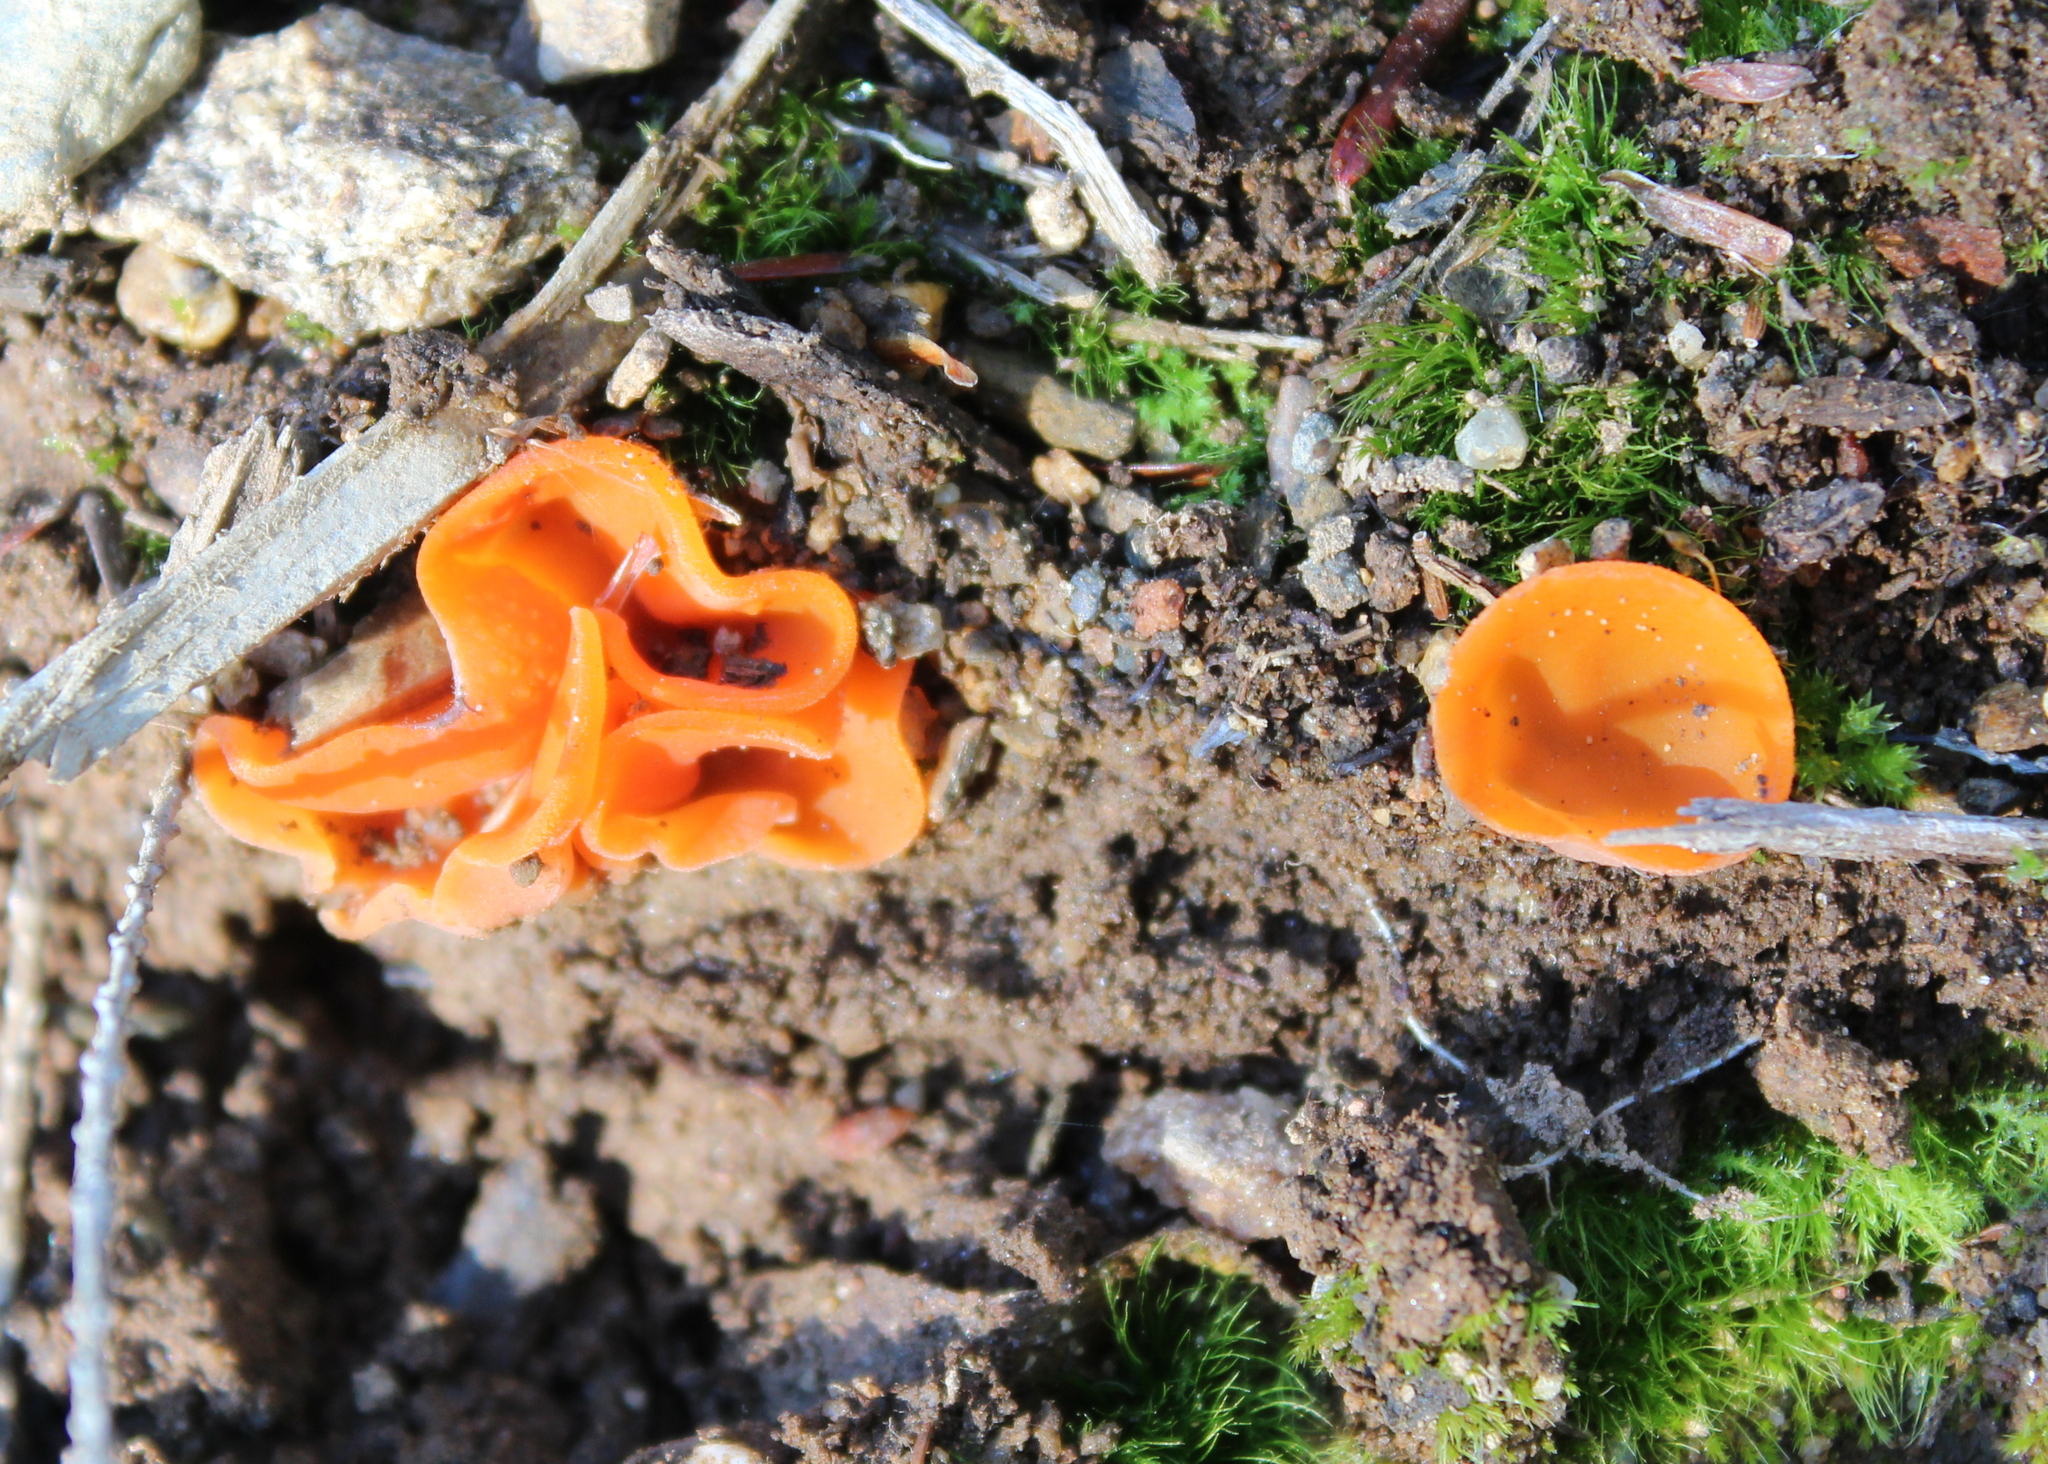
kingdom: Fungi
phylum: Ascomycota
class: Pezizomycetes
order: Pezizales
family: Pyronemataceae
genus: Aleuria
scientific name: Aleuria aurantia
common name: Orange peel fungus
